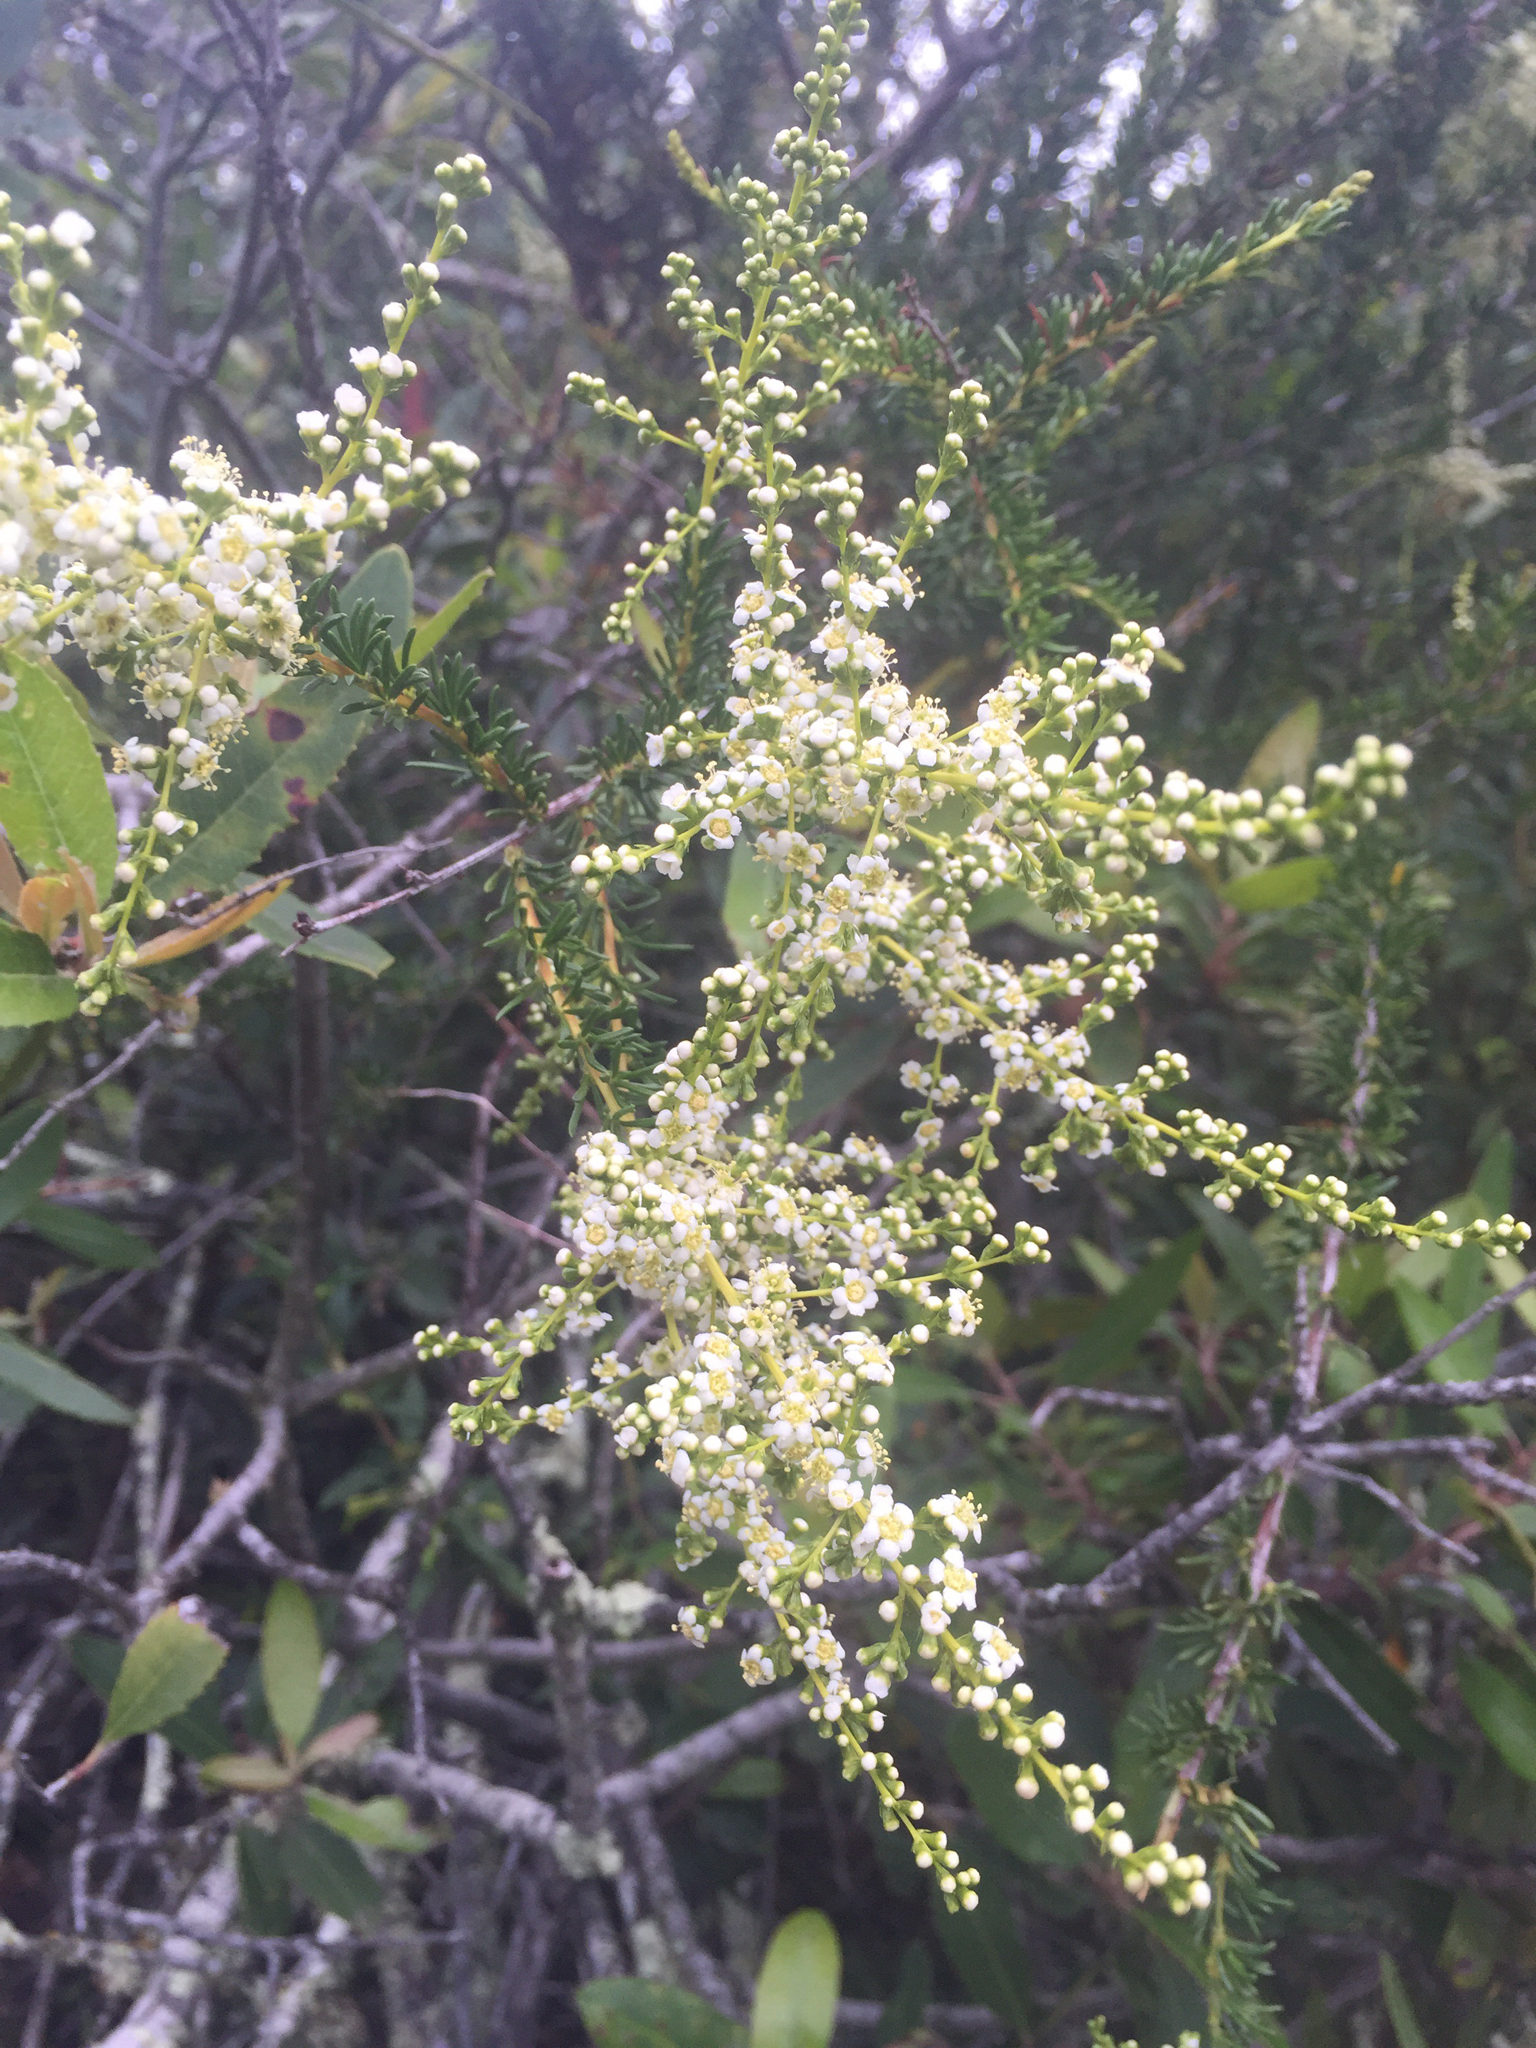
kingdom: Plantae
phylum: Tracheophyta
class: Magnoliopsida
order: Rosales
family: Rosaceae
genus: Adenostoma
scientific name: Adenostoma fasciculatum
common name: Chamise
